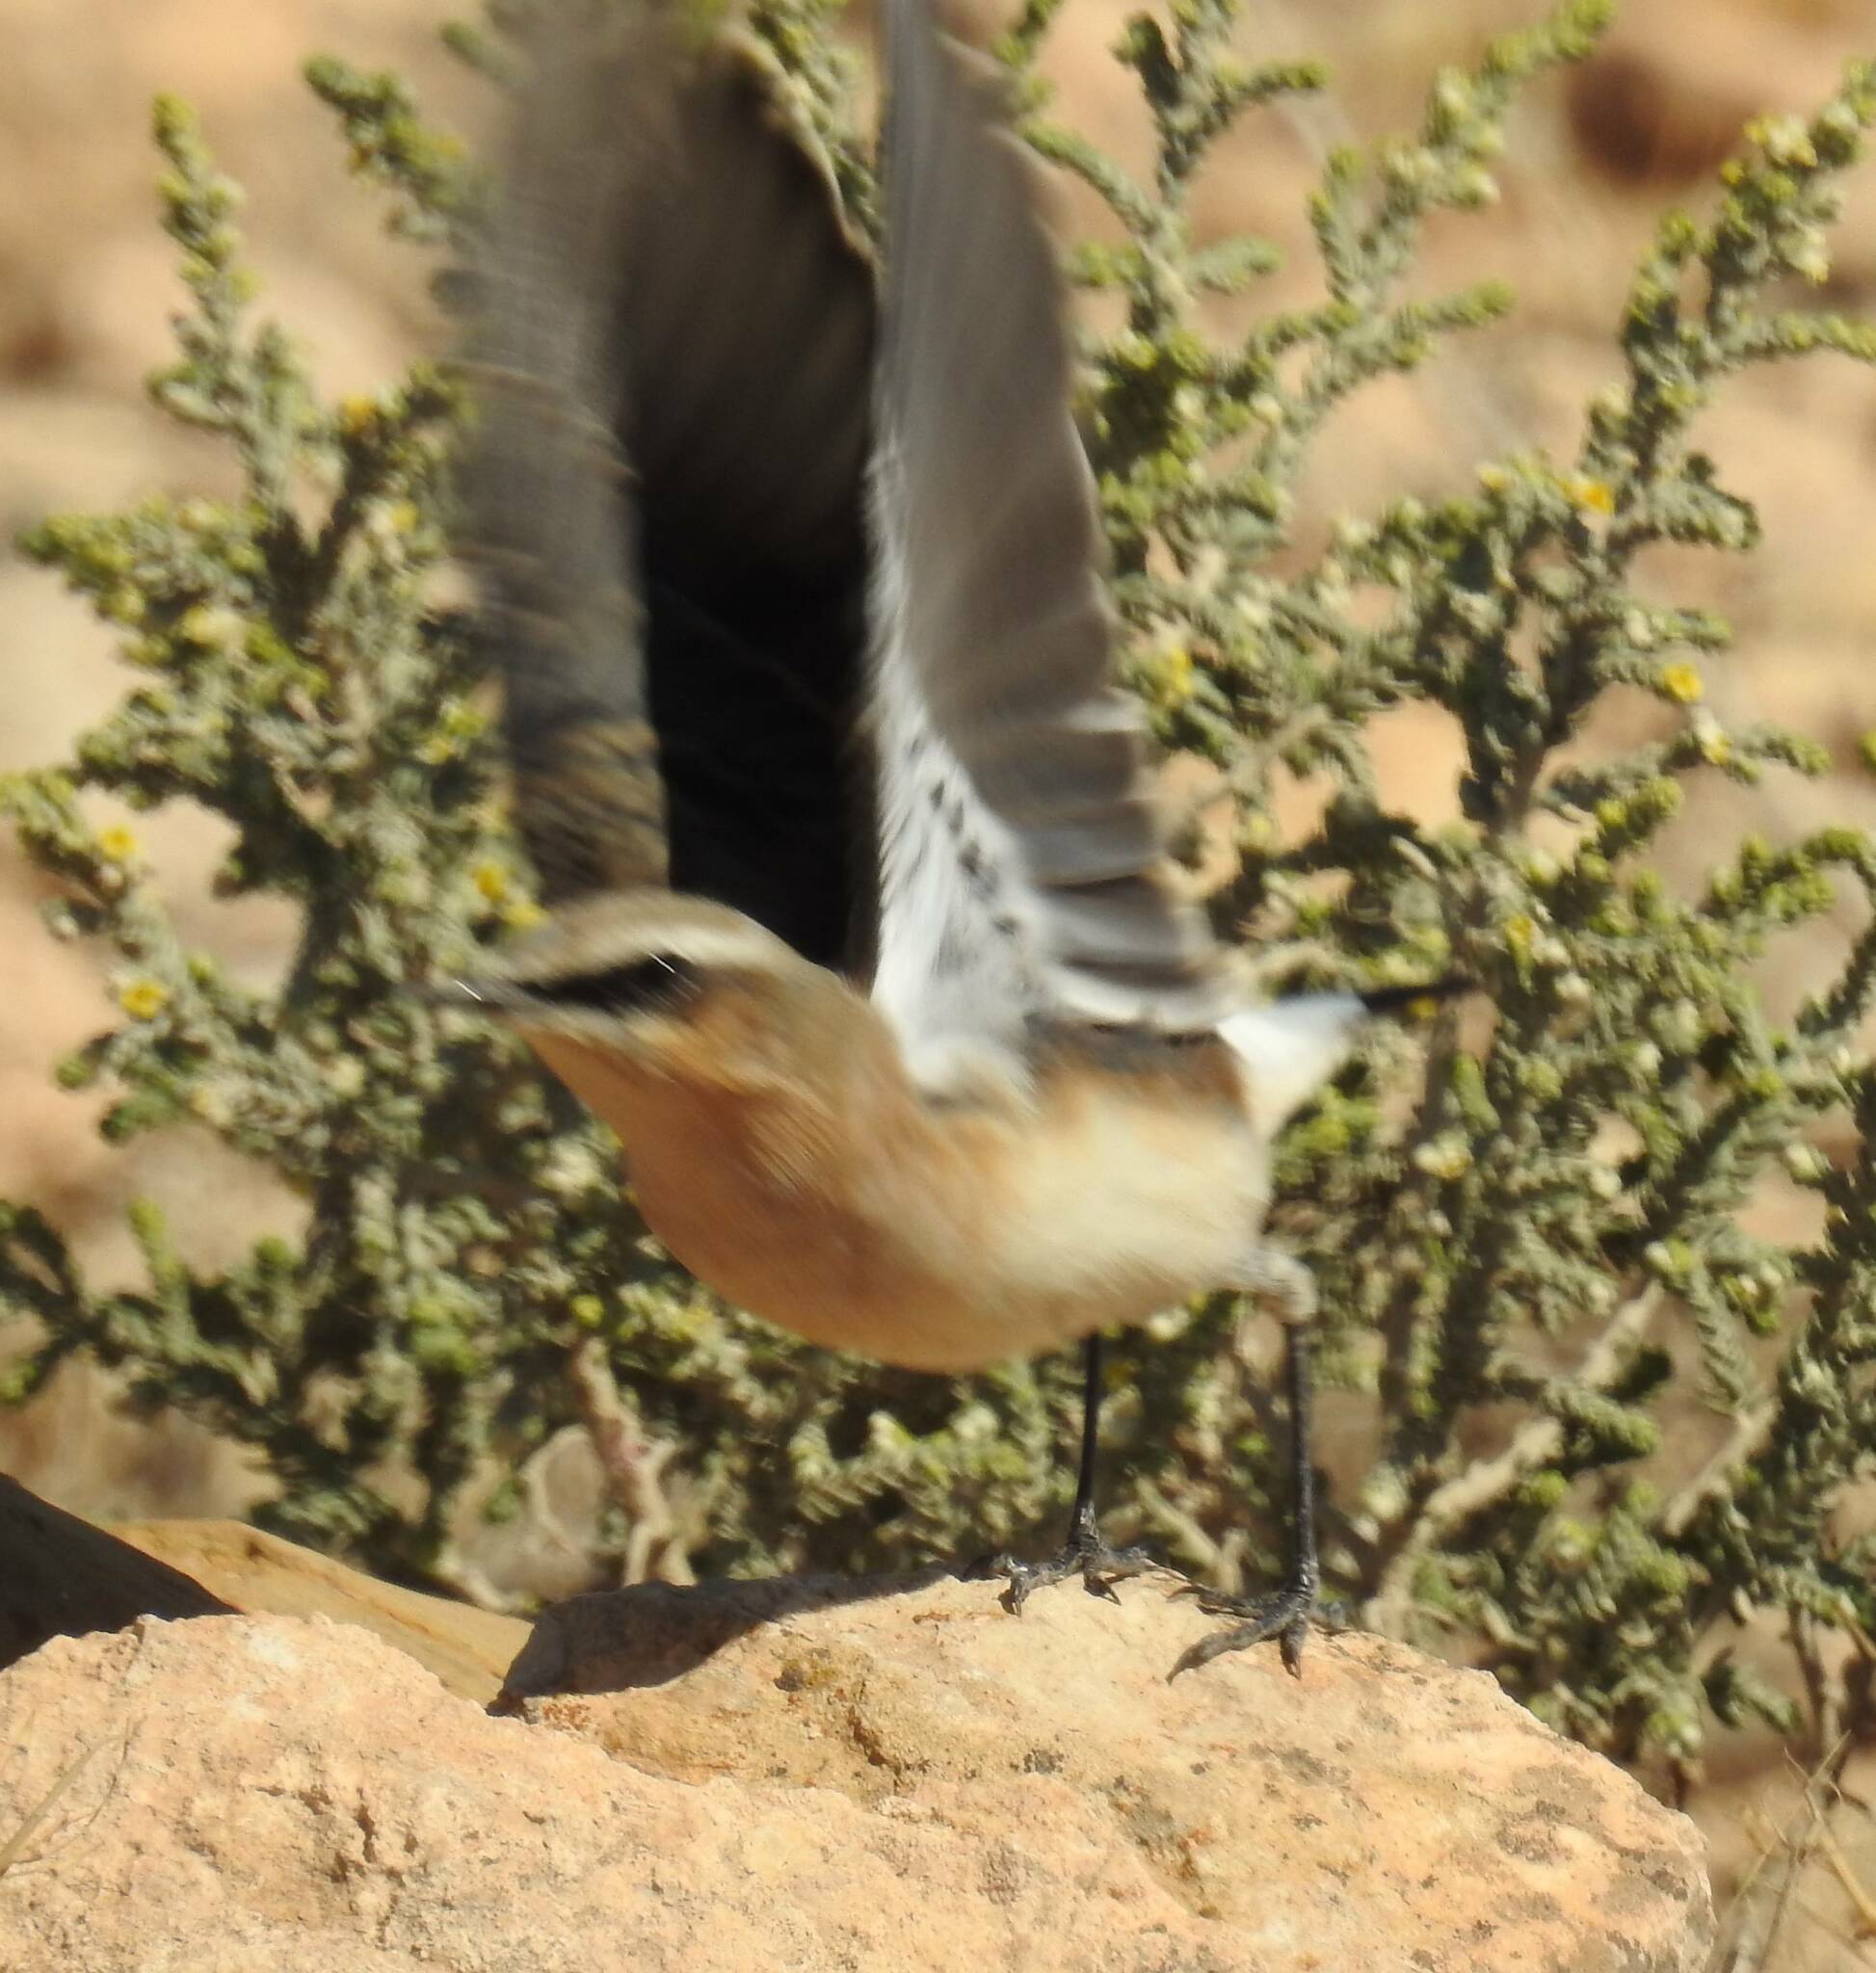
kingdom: Animalia
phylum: Chordata
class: Aves
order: Passeriformes
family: Muscicapidae
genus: Oenanthe
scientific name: Oenanthe oenanthe
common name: Northern wheatear
